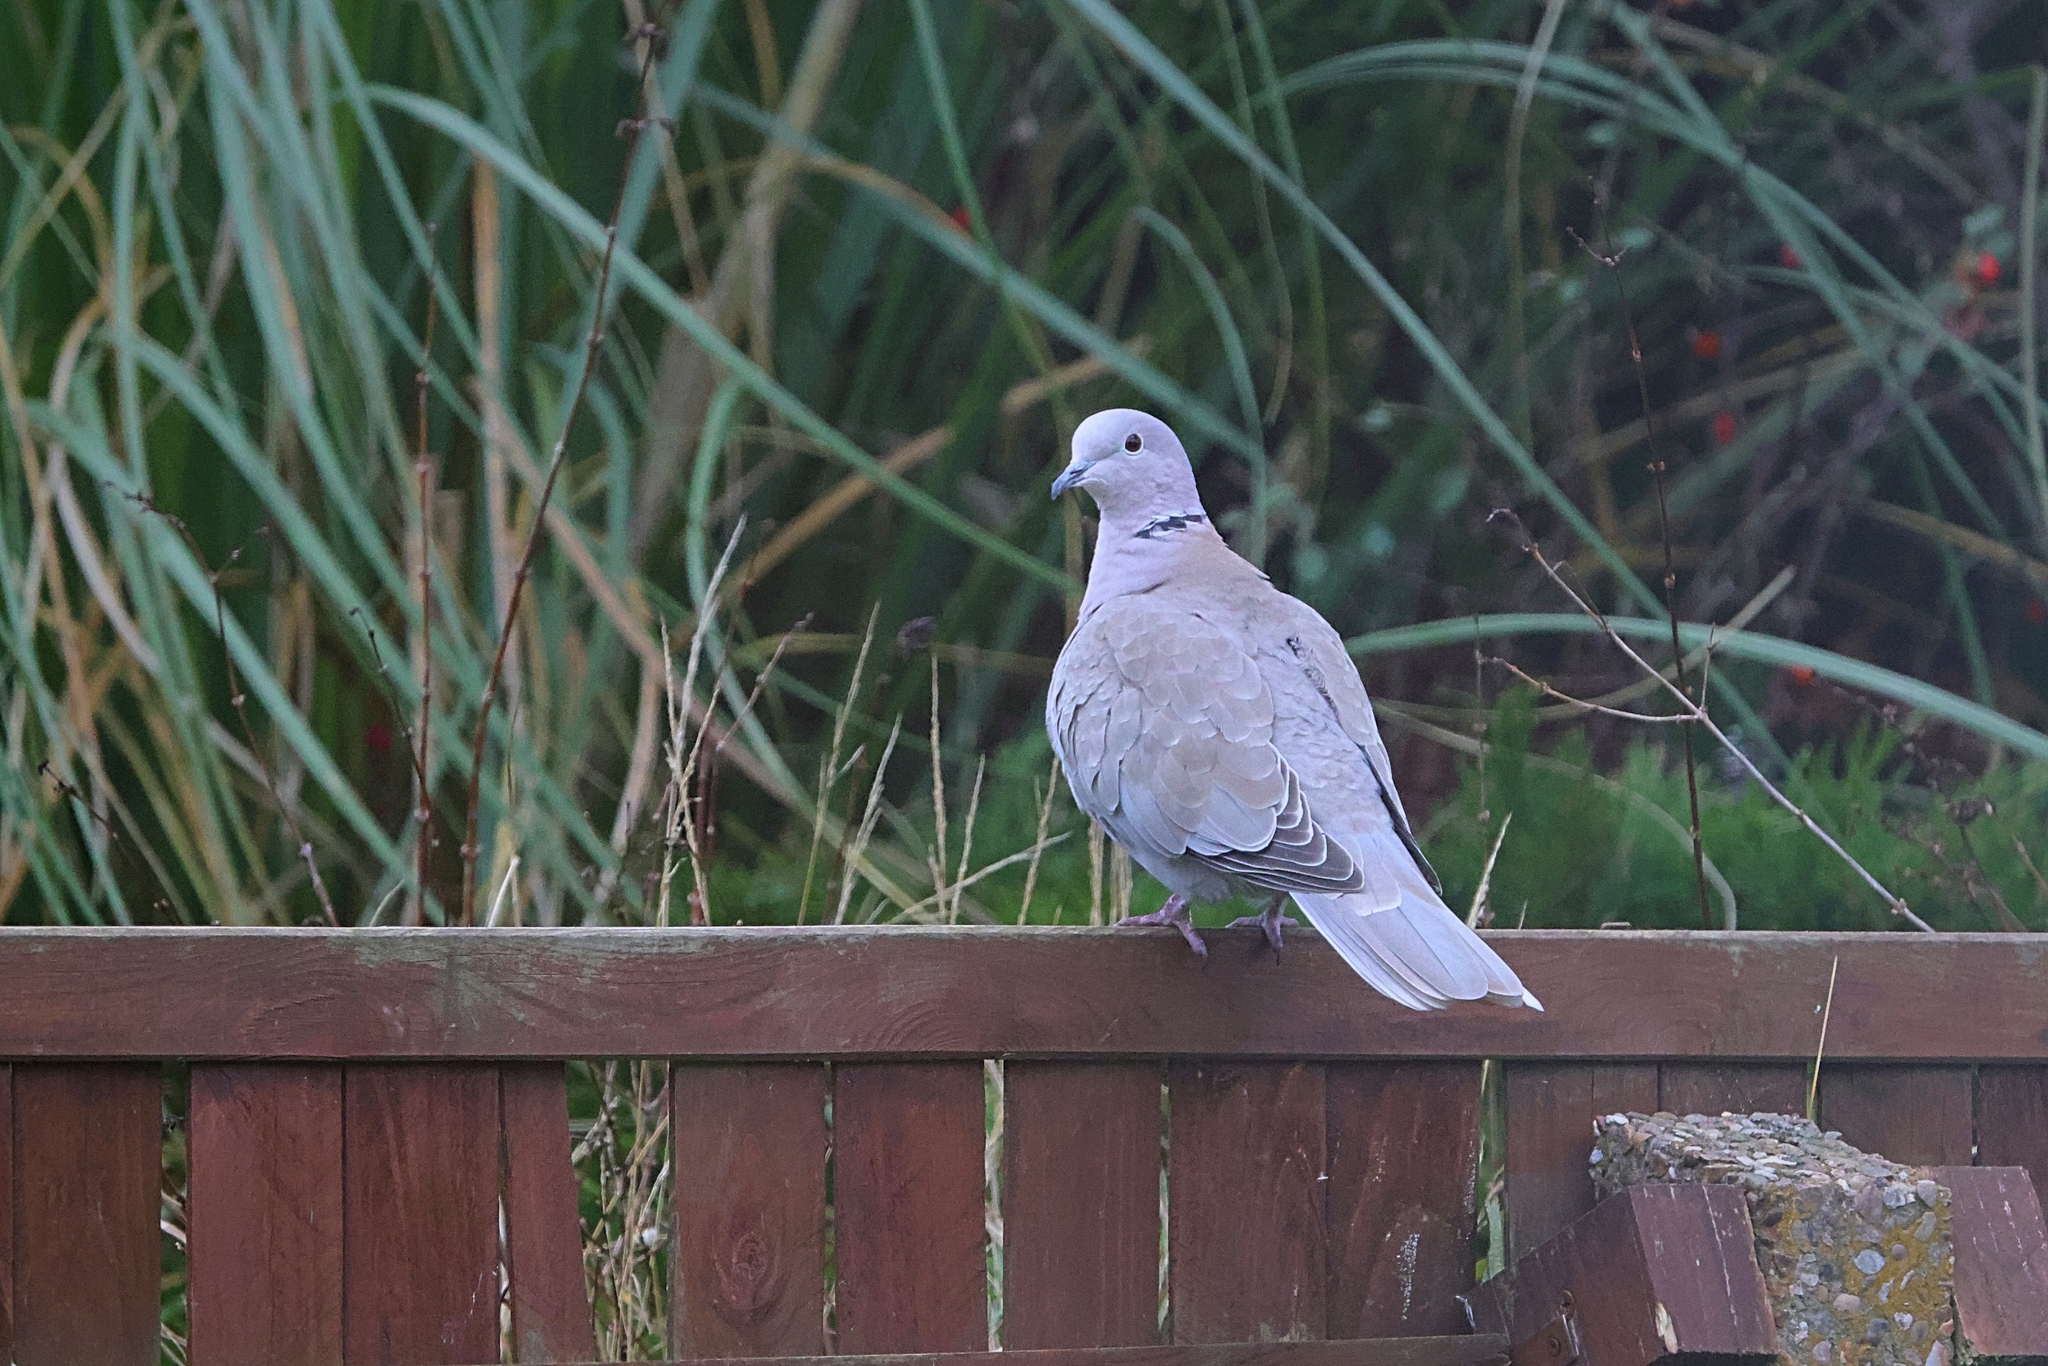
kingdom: Animalia
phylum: Chordata
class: Aves
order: Columbiformes
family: Columbidae
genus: Streptopelia
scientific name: Streptopelia decaocto
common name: Eurasian collared dove
